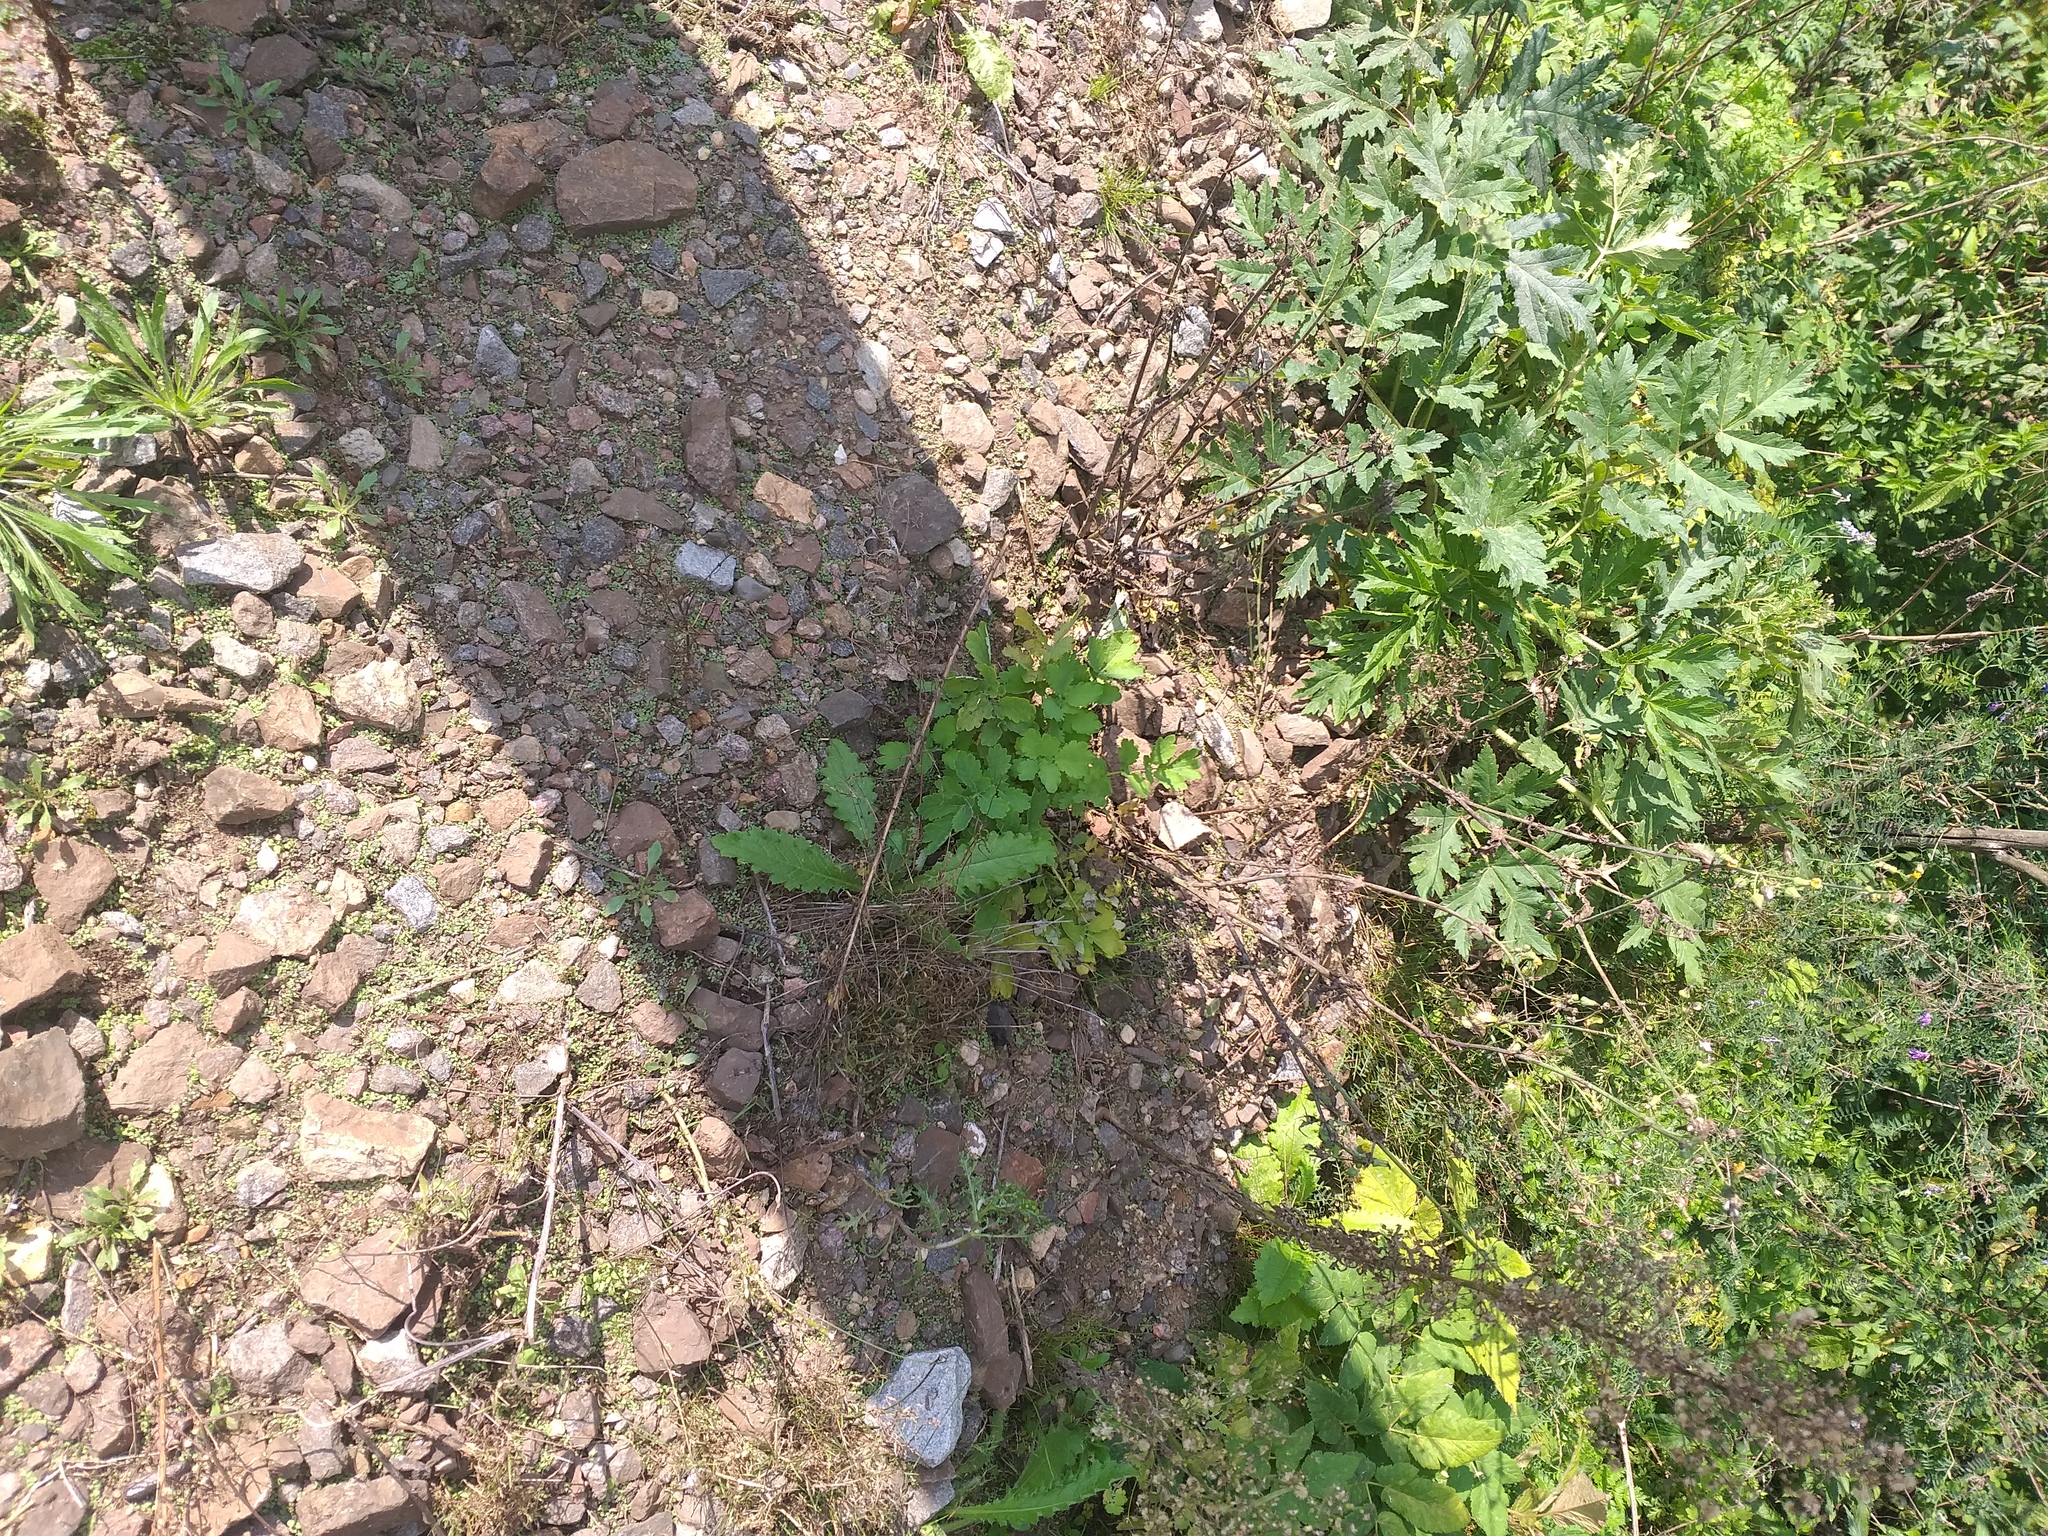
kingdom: Plantae
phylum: Tracheophyta
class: Magnoliopsida
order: Ranunculales
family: Papaveraceae
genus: Chelidonium
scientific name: Chelidonium majus
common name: Greater celandine
